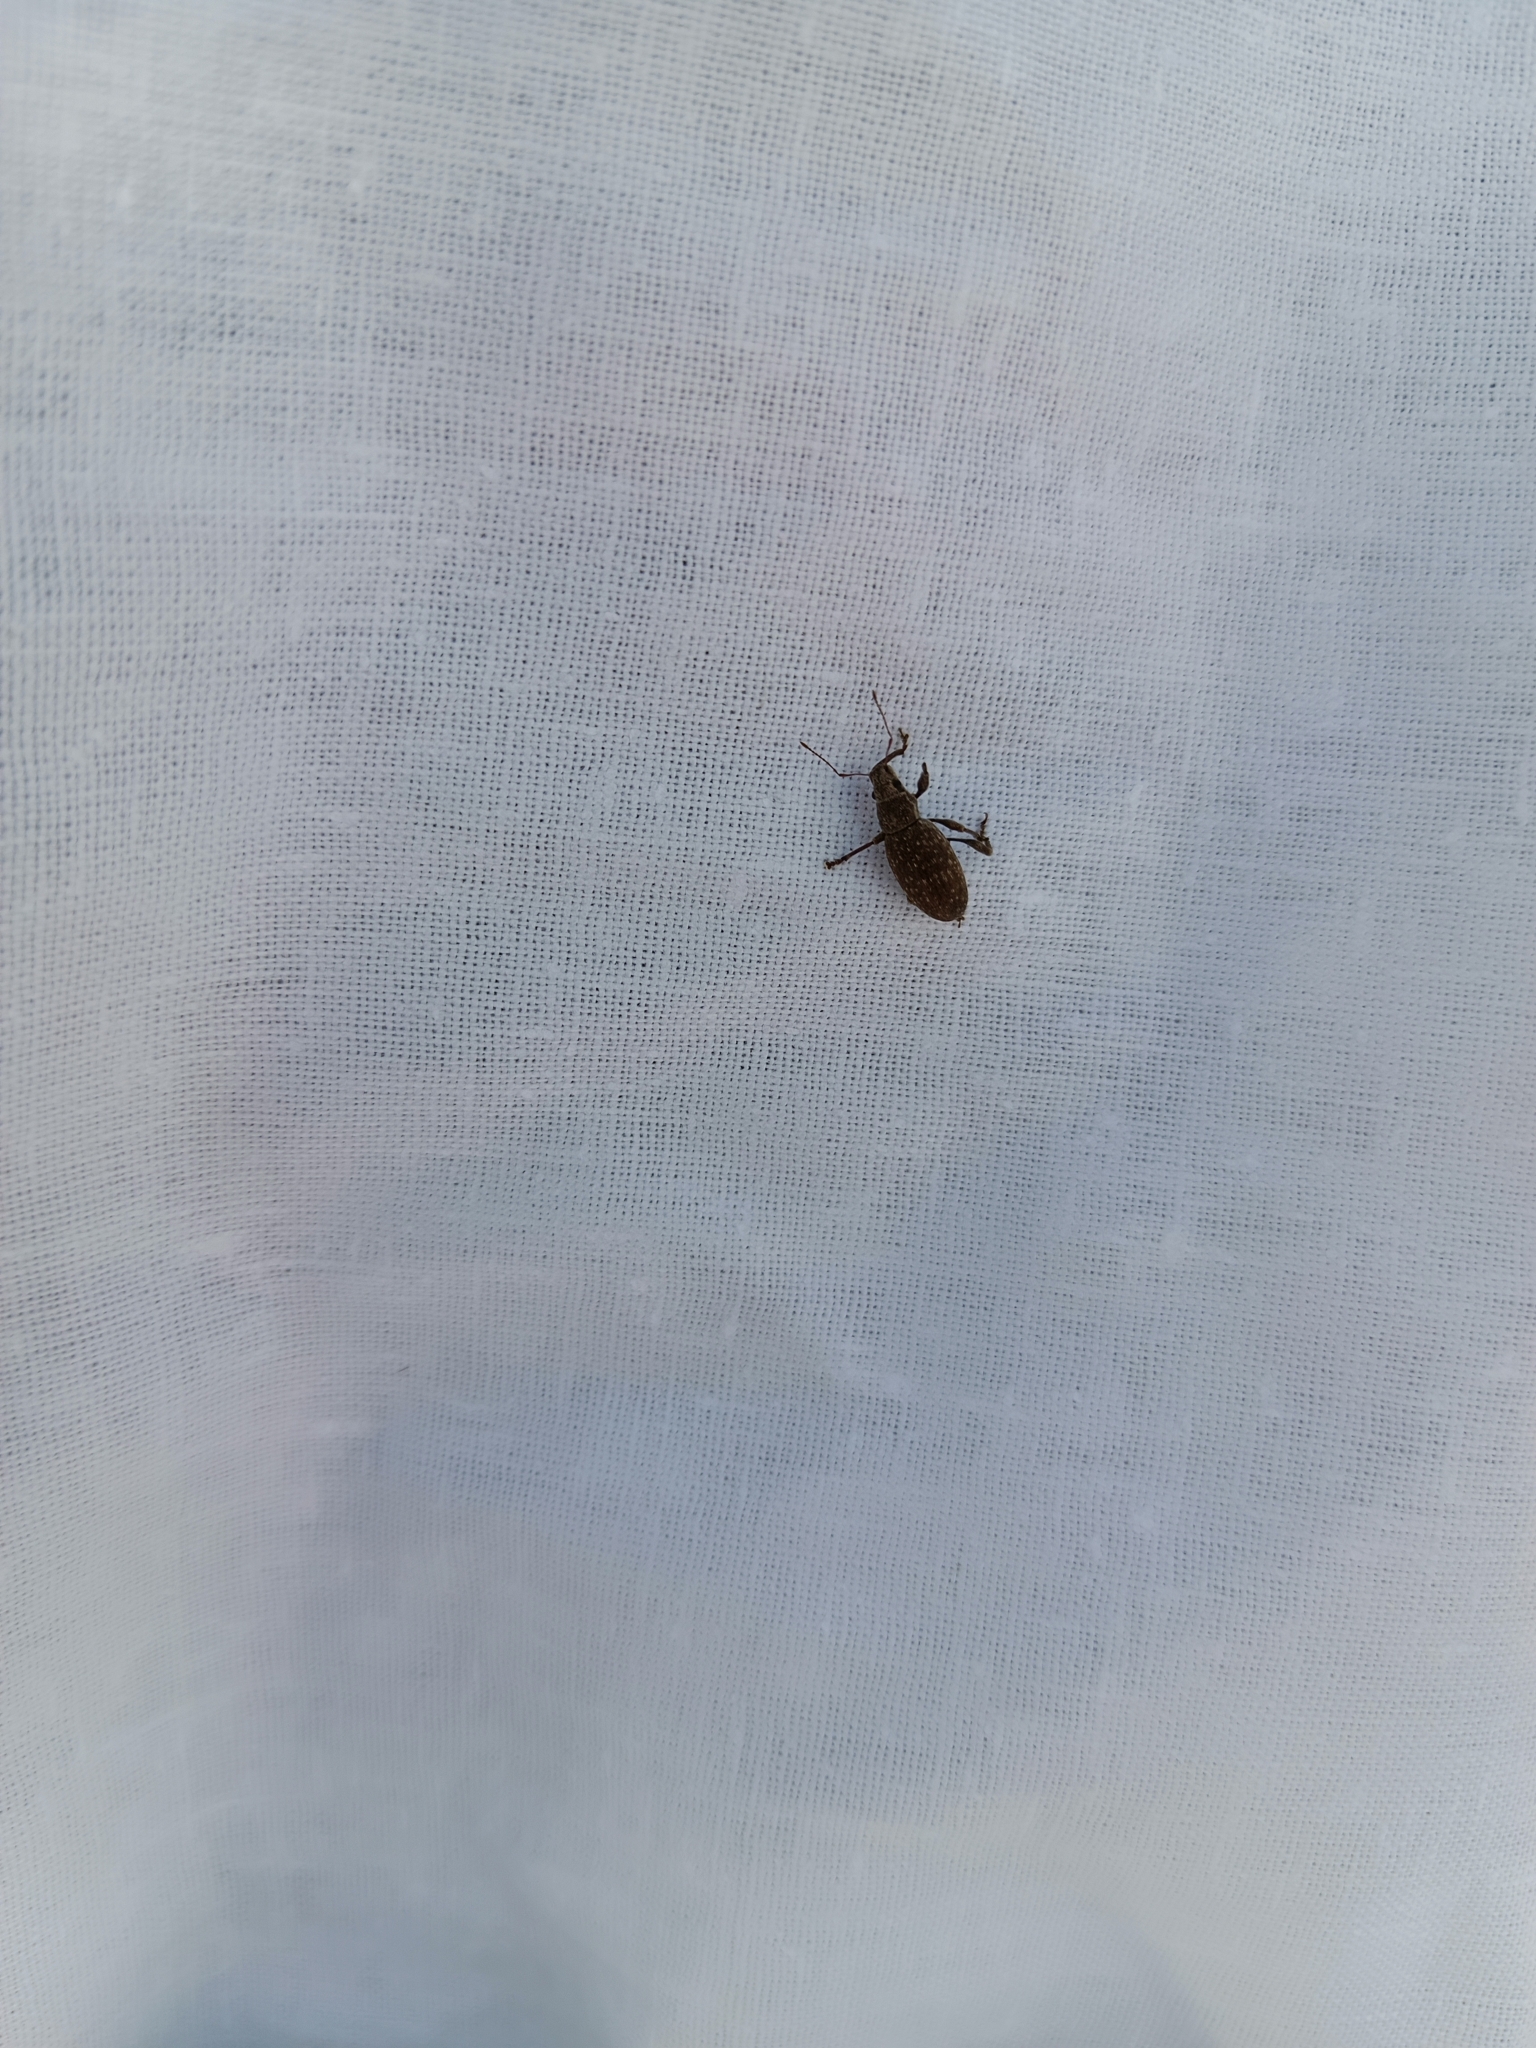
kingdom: Animalia
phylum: Arthropoda
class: Insecta
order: Coleoptera
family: Curculionidae
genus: Brachyderes
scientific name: Brachyderes incanus
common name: Weevil
